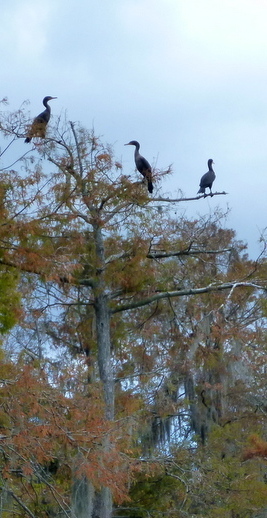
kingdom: Animalia
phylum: Chordata
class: Aves
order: Suliformes
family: Phalacrocoracidae
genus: Phalacrocorax
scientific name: Phalacrocorax auritus
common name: Double-crested cormorant
